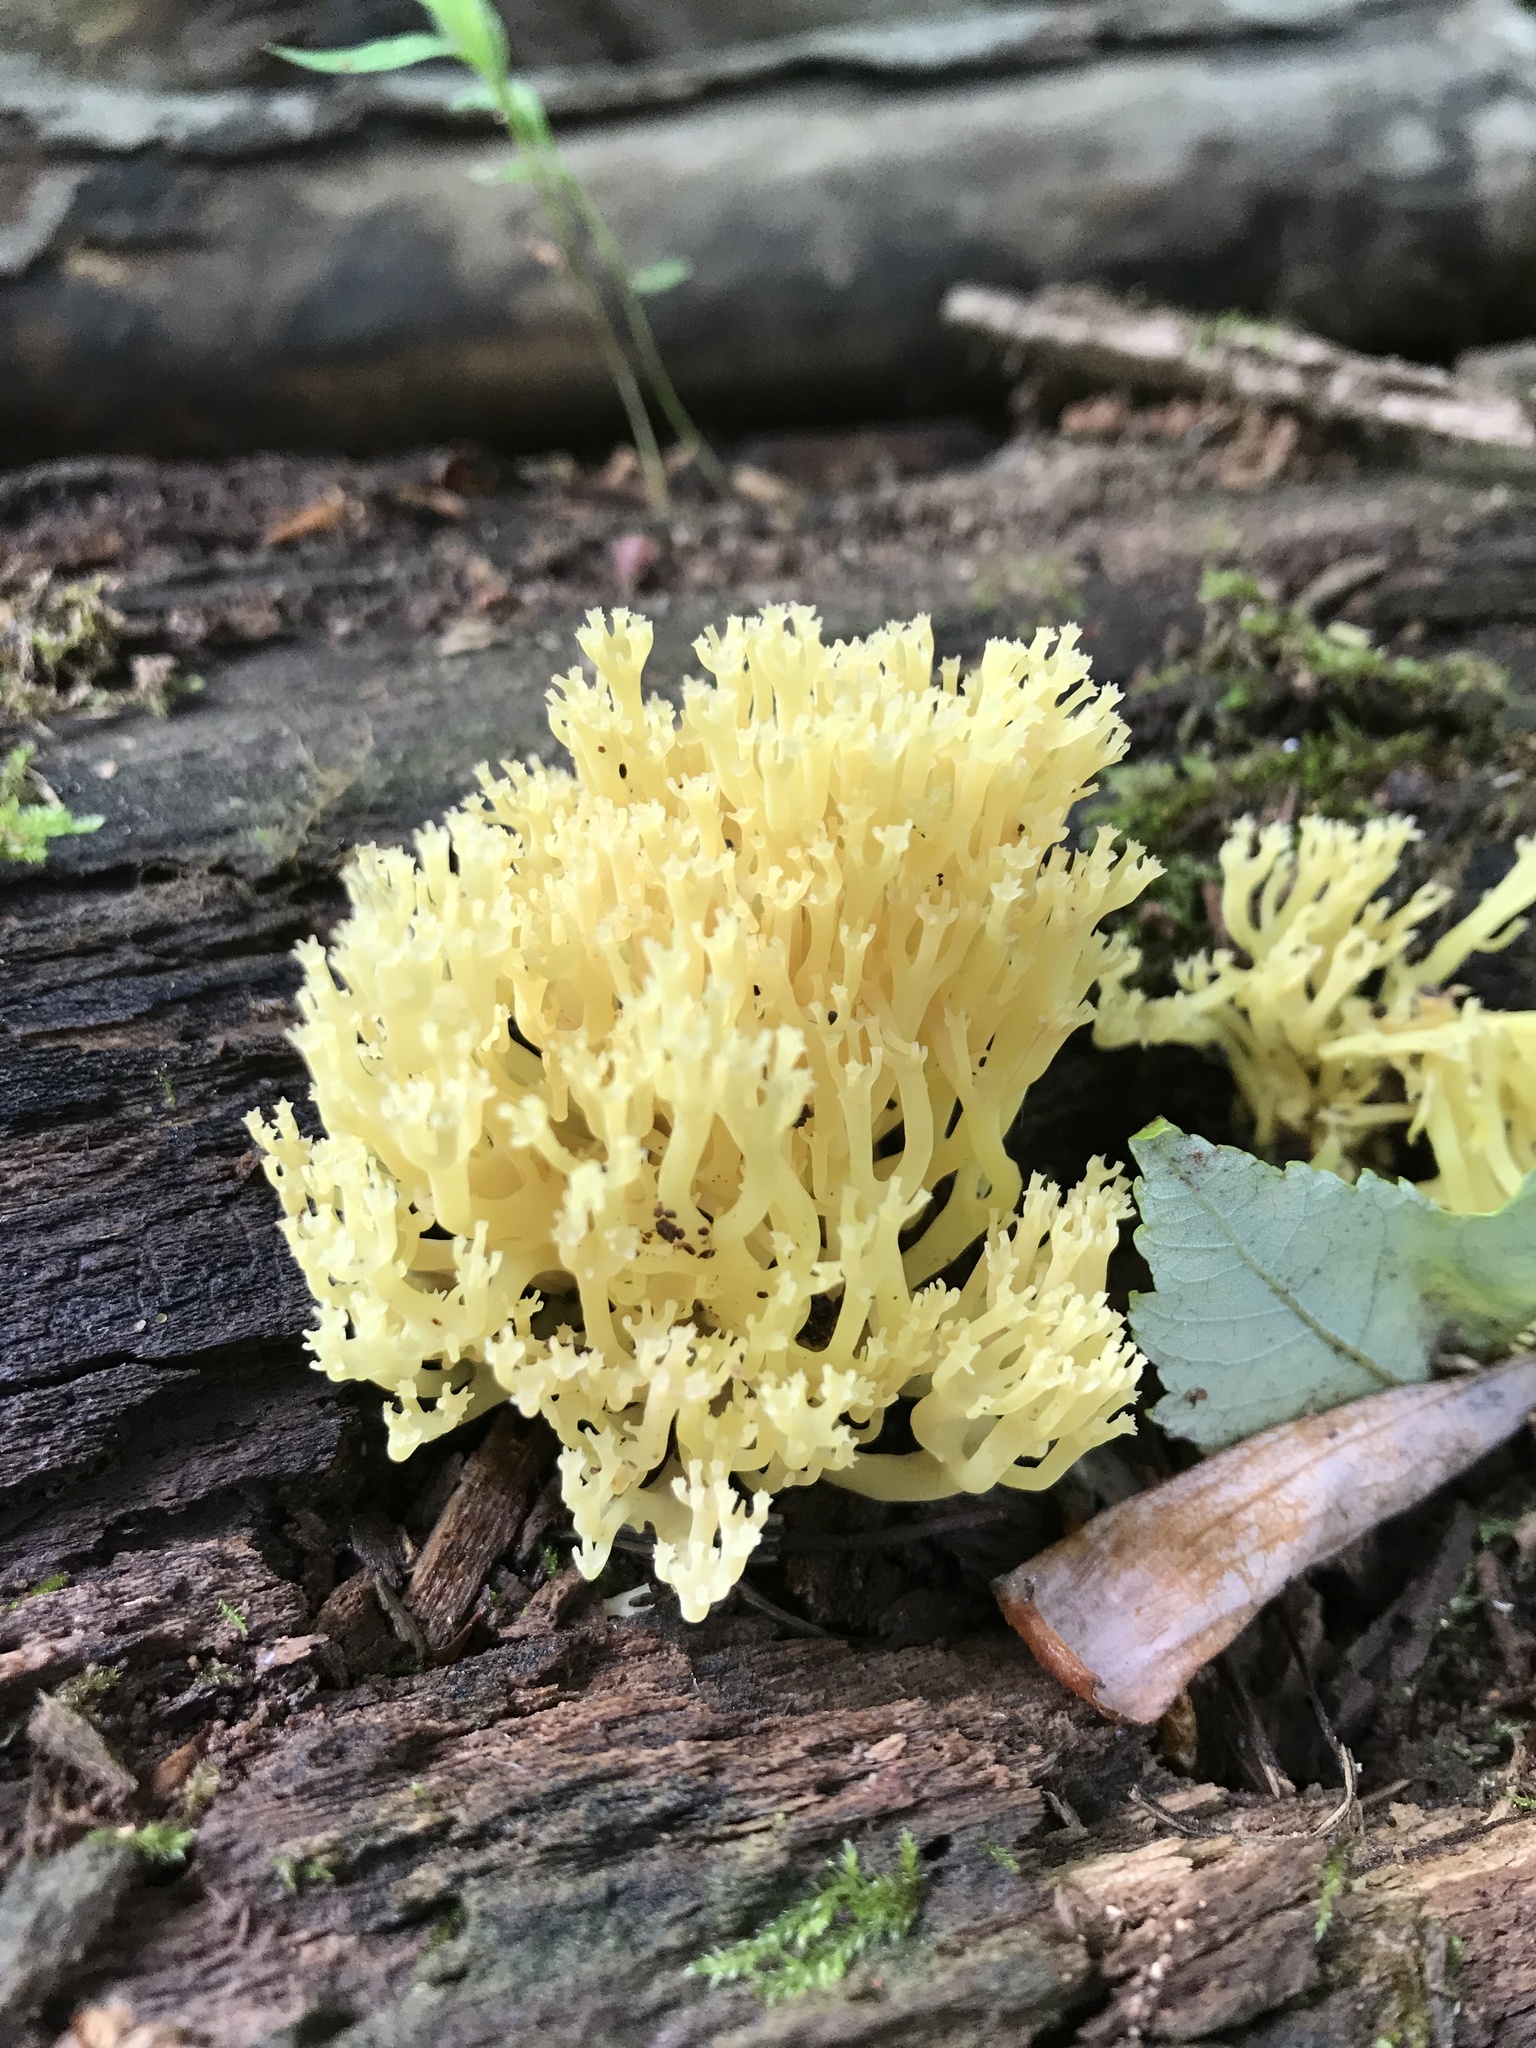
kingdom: Fungi
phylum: Basidiomycota
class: Agaricomycetes
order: Russulales
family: Auriscalpiaceae
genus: Artomyces
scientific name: Artomyces pyxidatus
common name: Crown-tipped coral fungus
